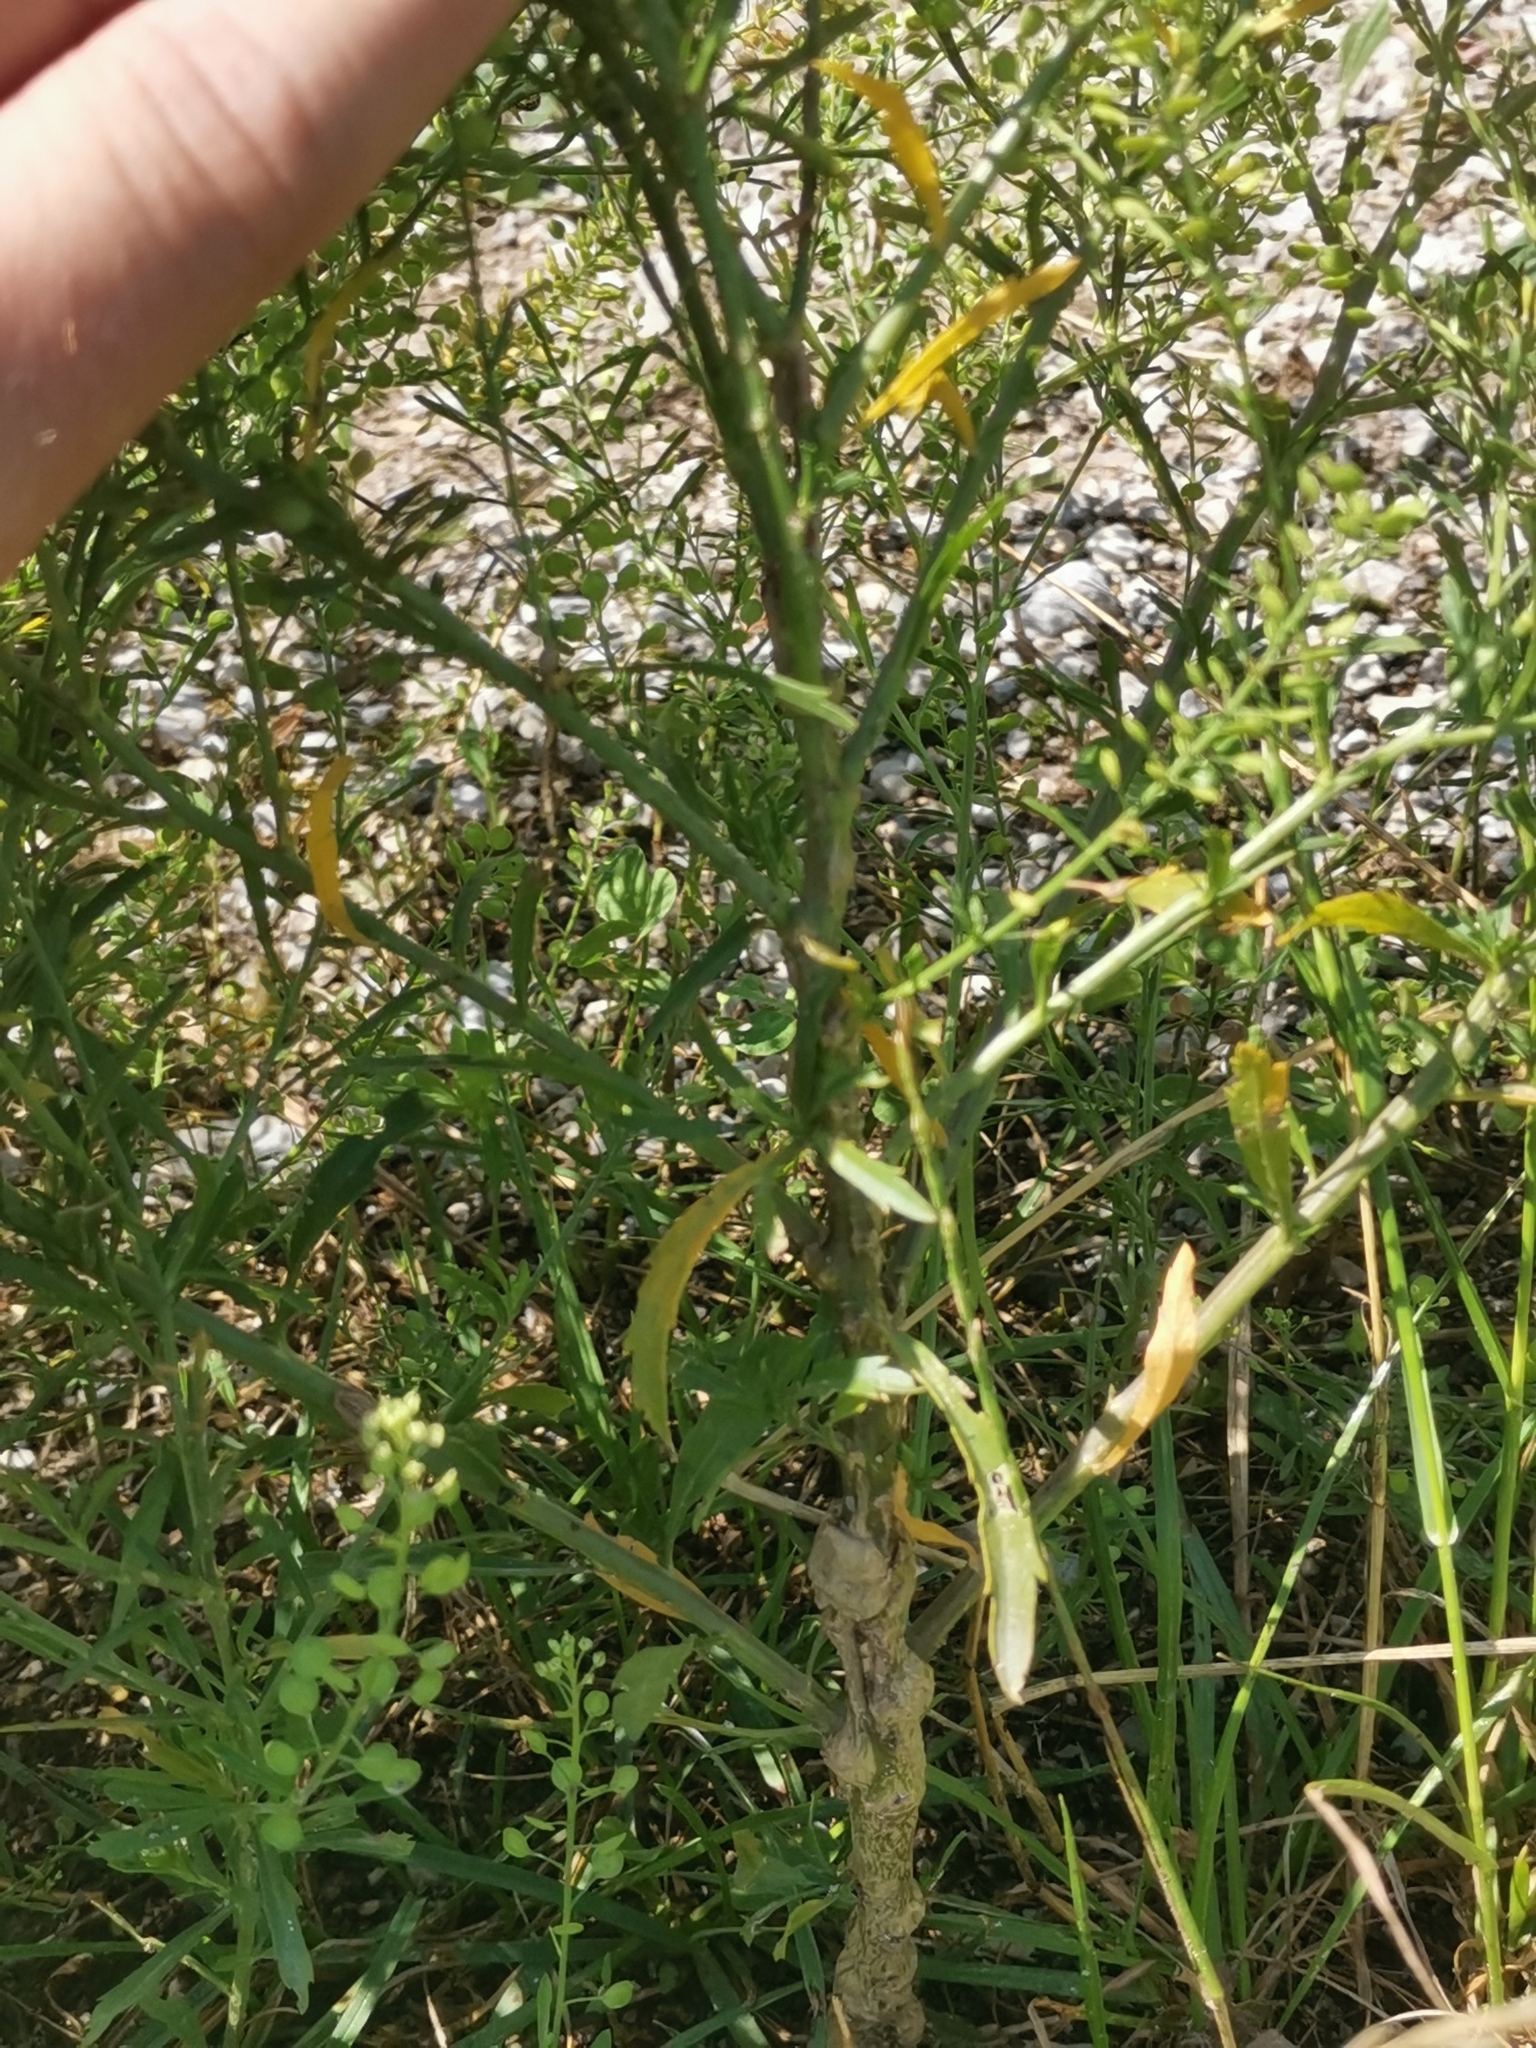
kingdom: Plantae
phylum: Tracheophyta
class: Magnoliopsida
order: Brassicales
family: Brassicaceae
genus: Lepidium
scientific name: Lepidium virginicum
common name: Least pepperwort
